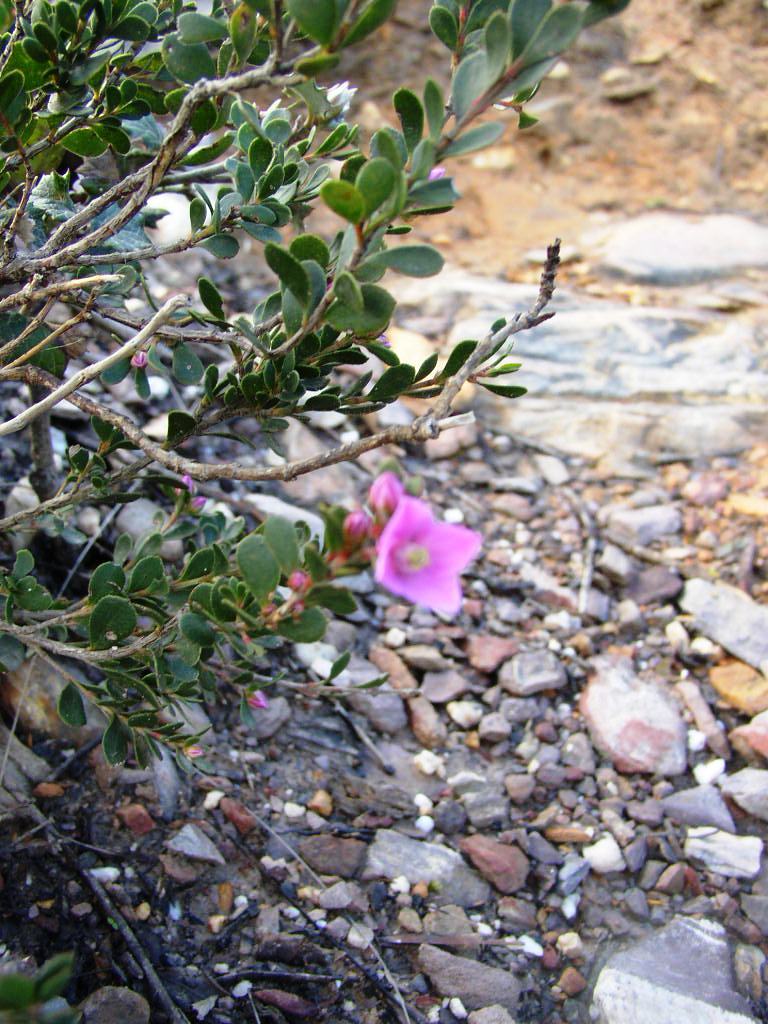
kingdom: Plantae
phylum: Tracheophyta
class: Magnoliopsida
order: Sapindales
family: Rutaceae
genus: Boronia
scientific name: Boronia crenulata
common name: Aniseed boronia
